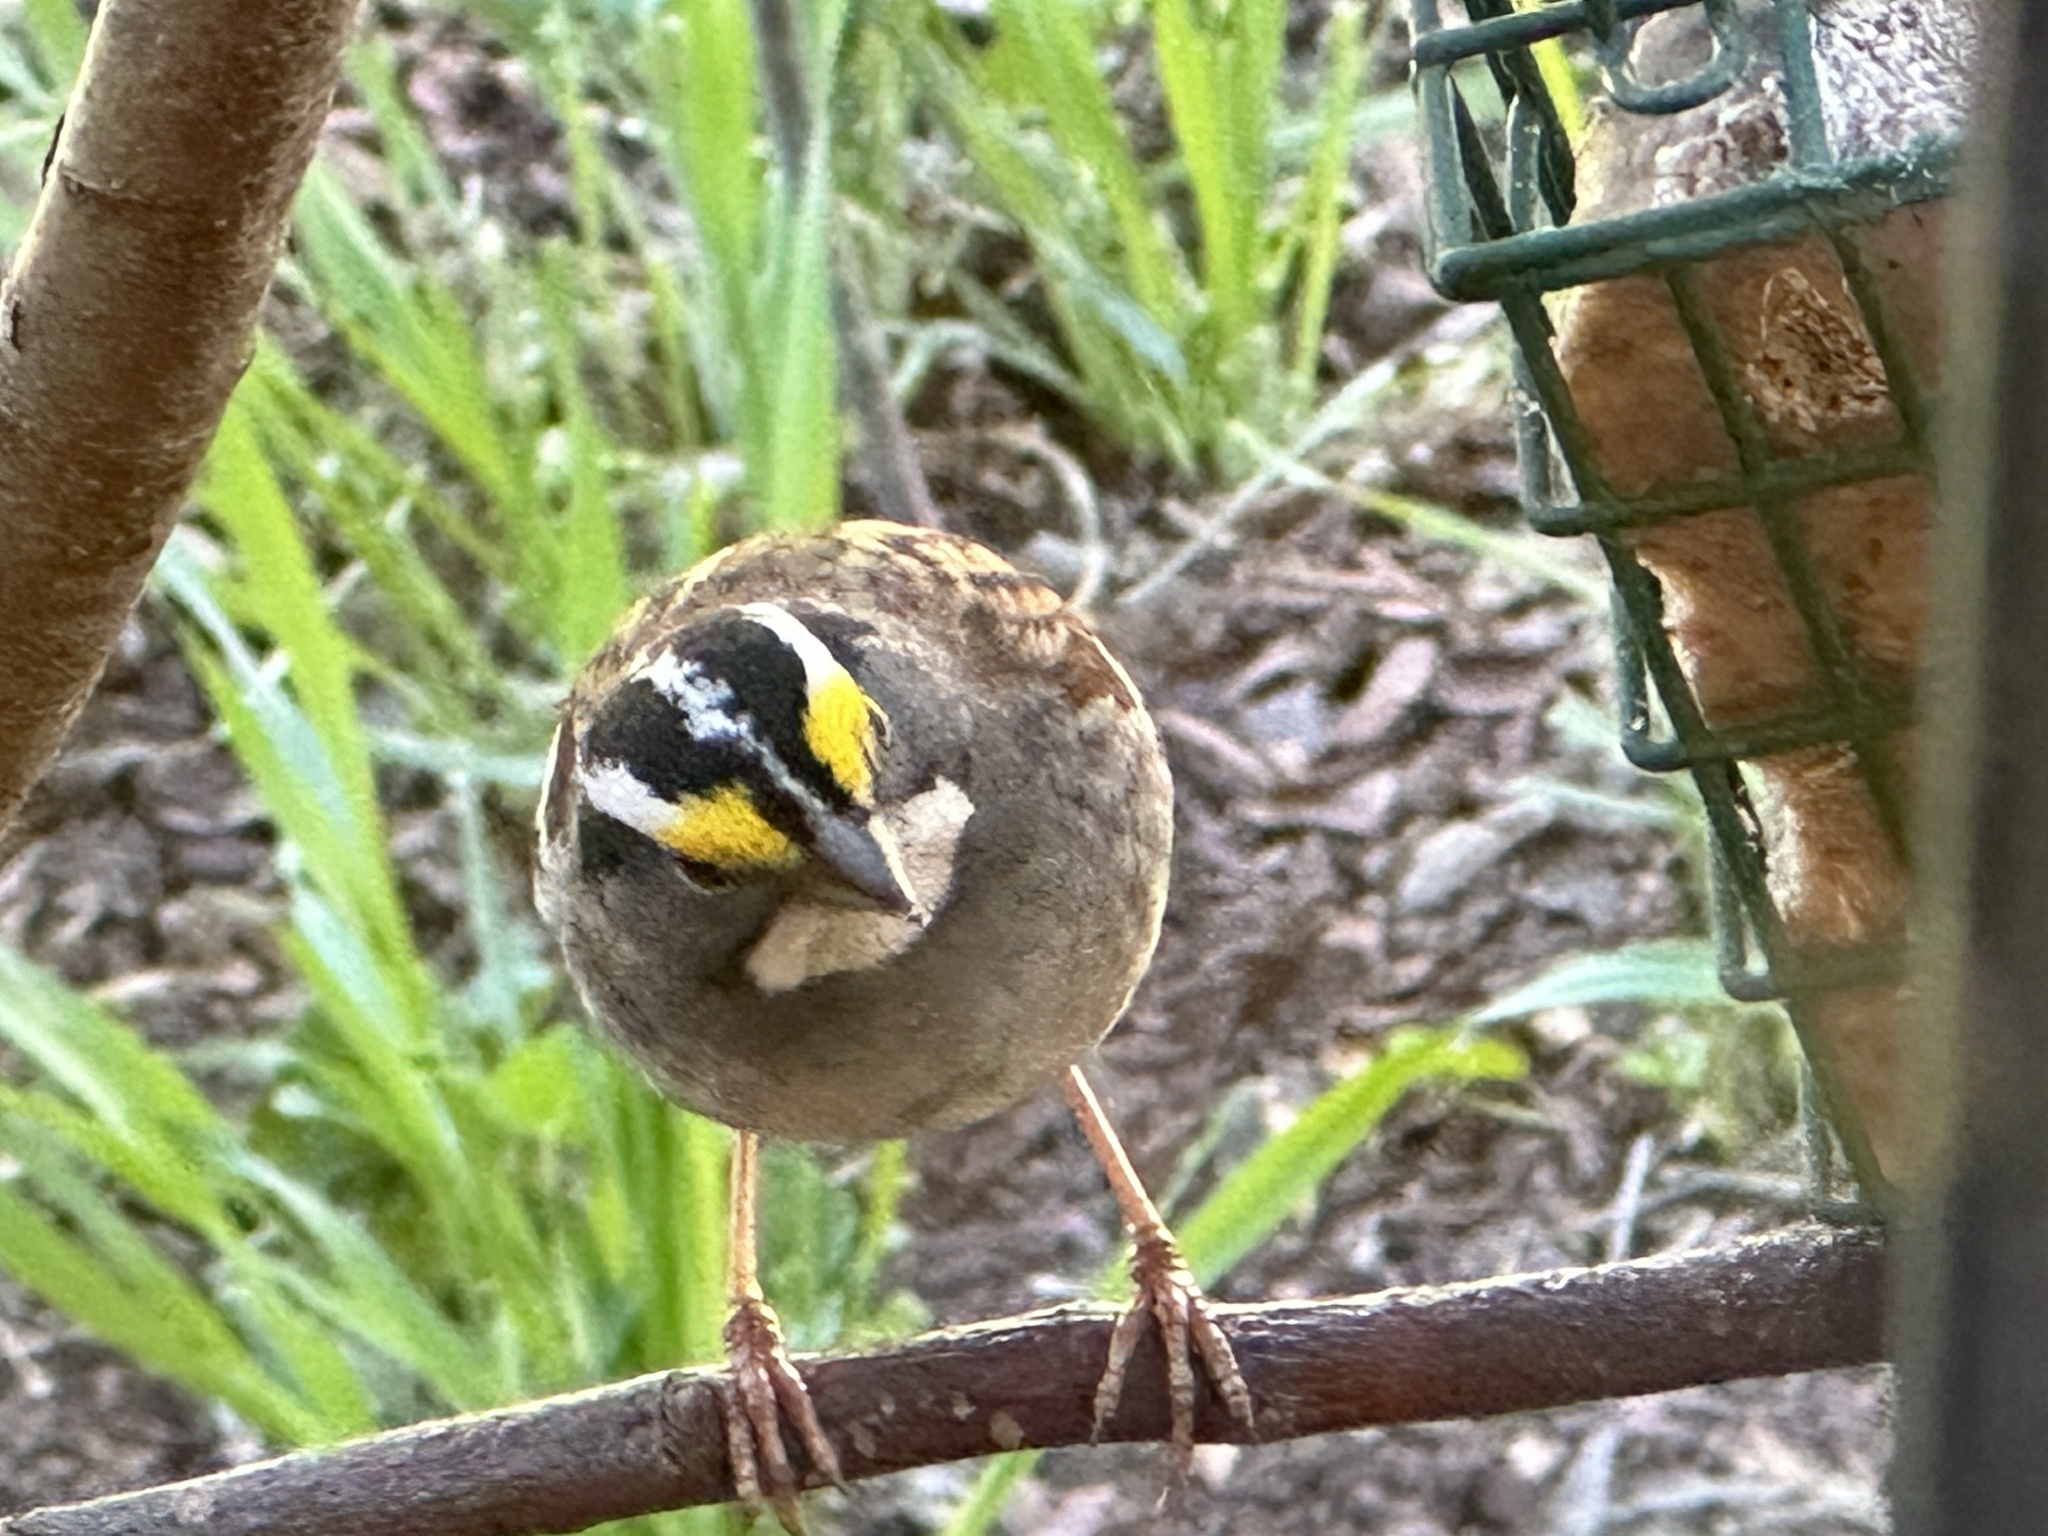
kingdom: Animalia
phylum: Chordata
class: Aves
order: Passeriformes
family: Passerellidae
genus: Zonotrichia
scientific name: Zonotrichia albicollis
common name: White-throated sparrow
